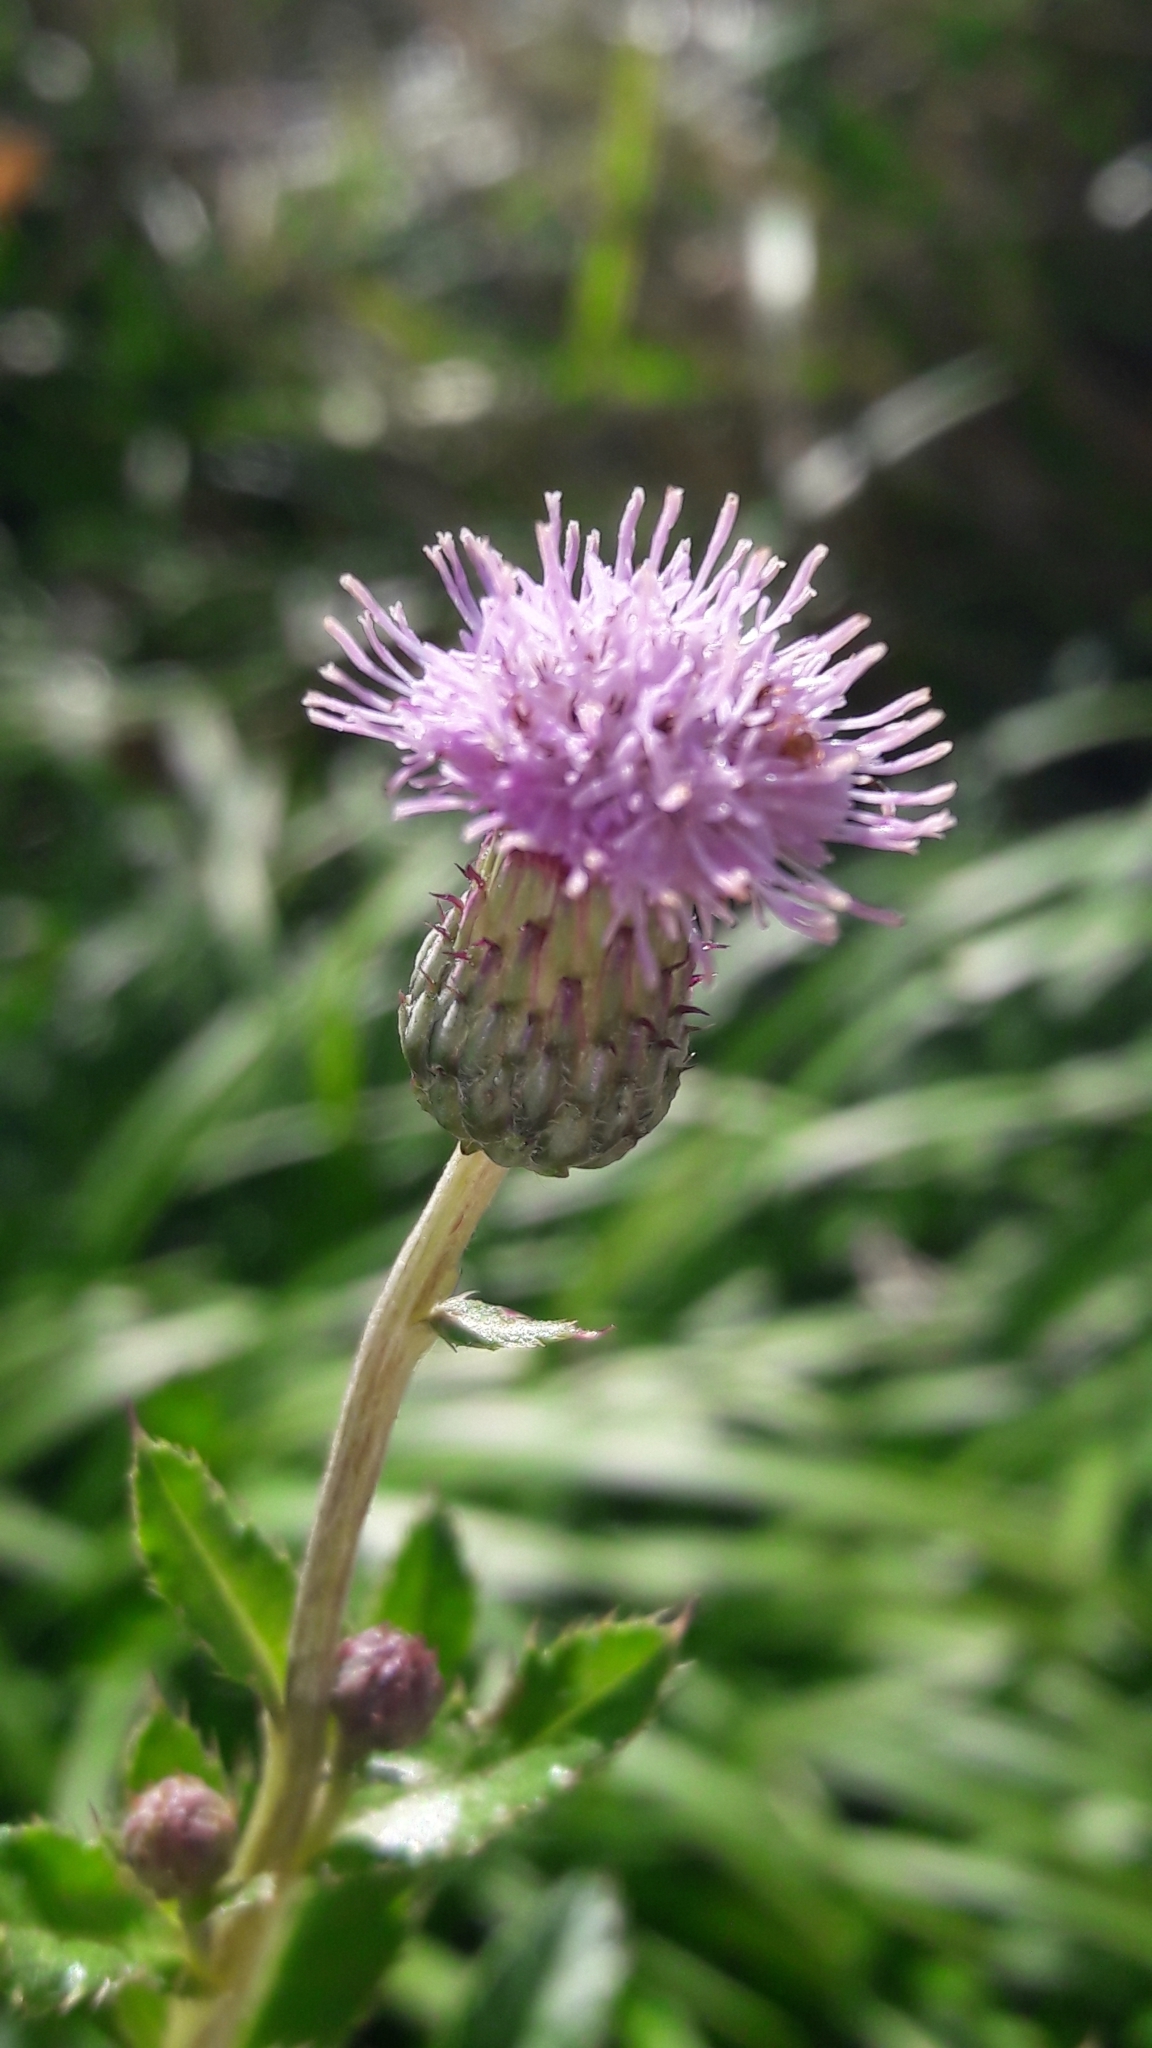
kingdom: Plantae
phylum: Tracheophyta
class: Magnoliopsida
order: Asterales
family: Asteraceae
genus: Cirsium
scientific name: Cirsium arvense
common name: Creeping thistle
